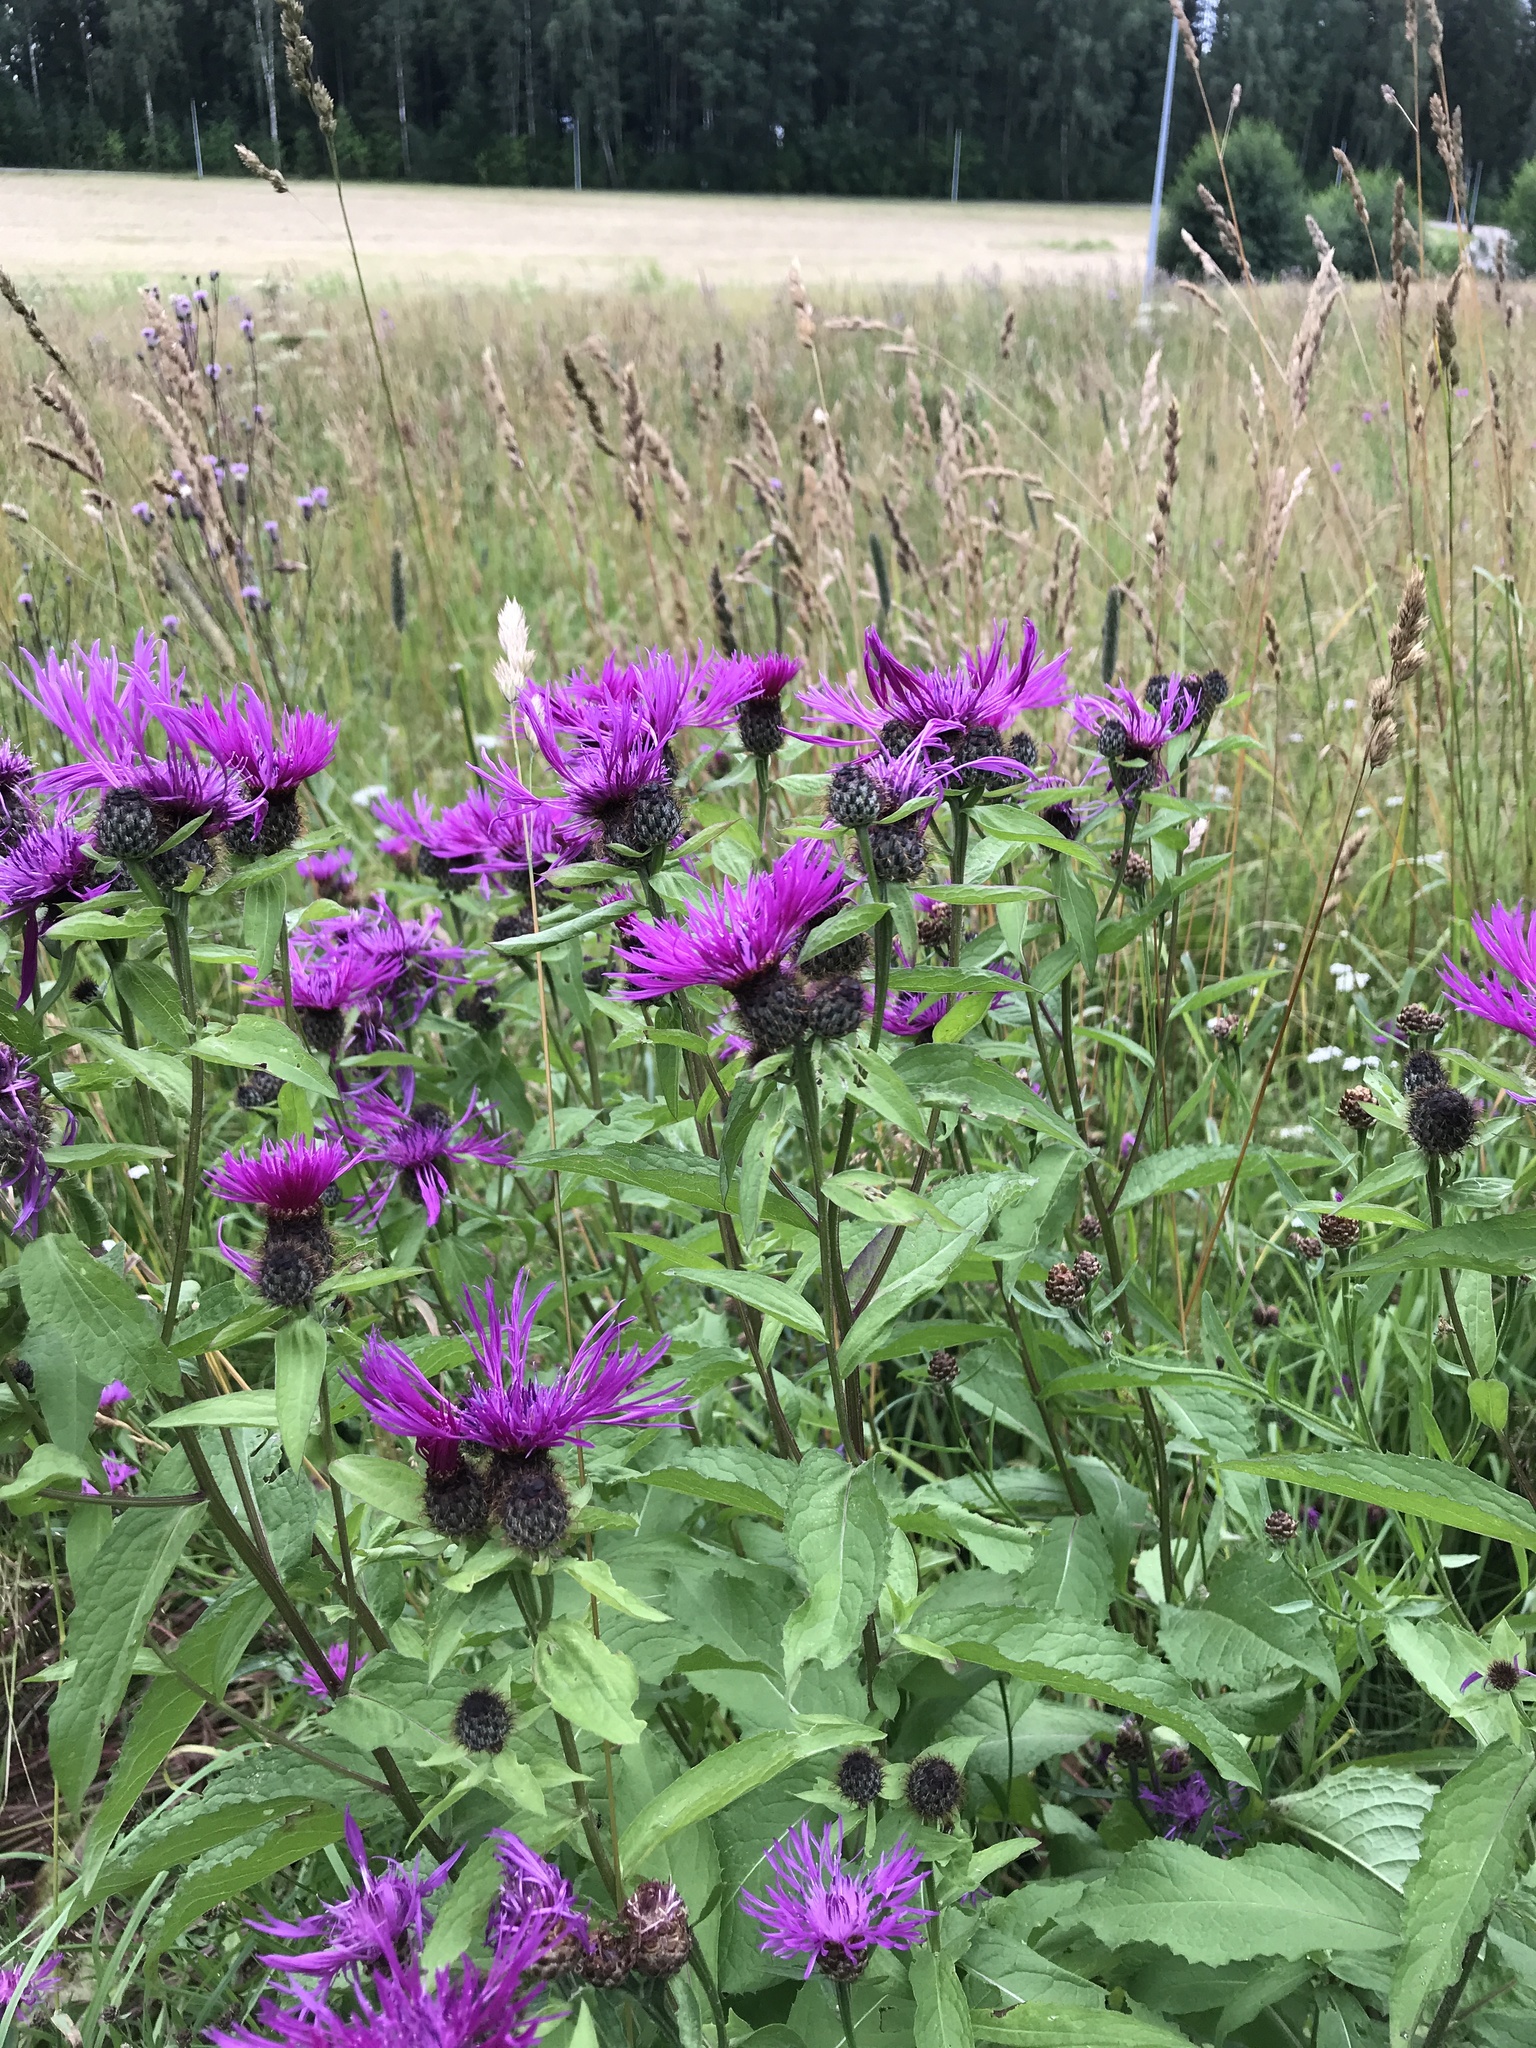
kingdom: Plantae
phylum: Tracheophyta
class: Magnoliopsida
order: Asterales
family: Asteraceae
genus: Centaurea
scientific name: Centaurea phrygia
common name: Wig knapweed
